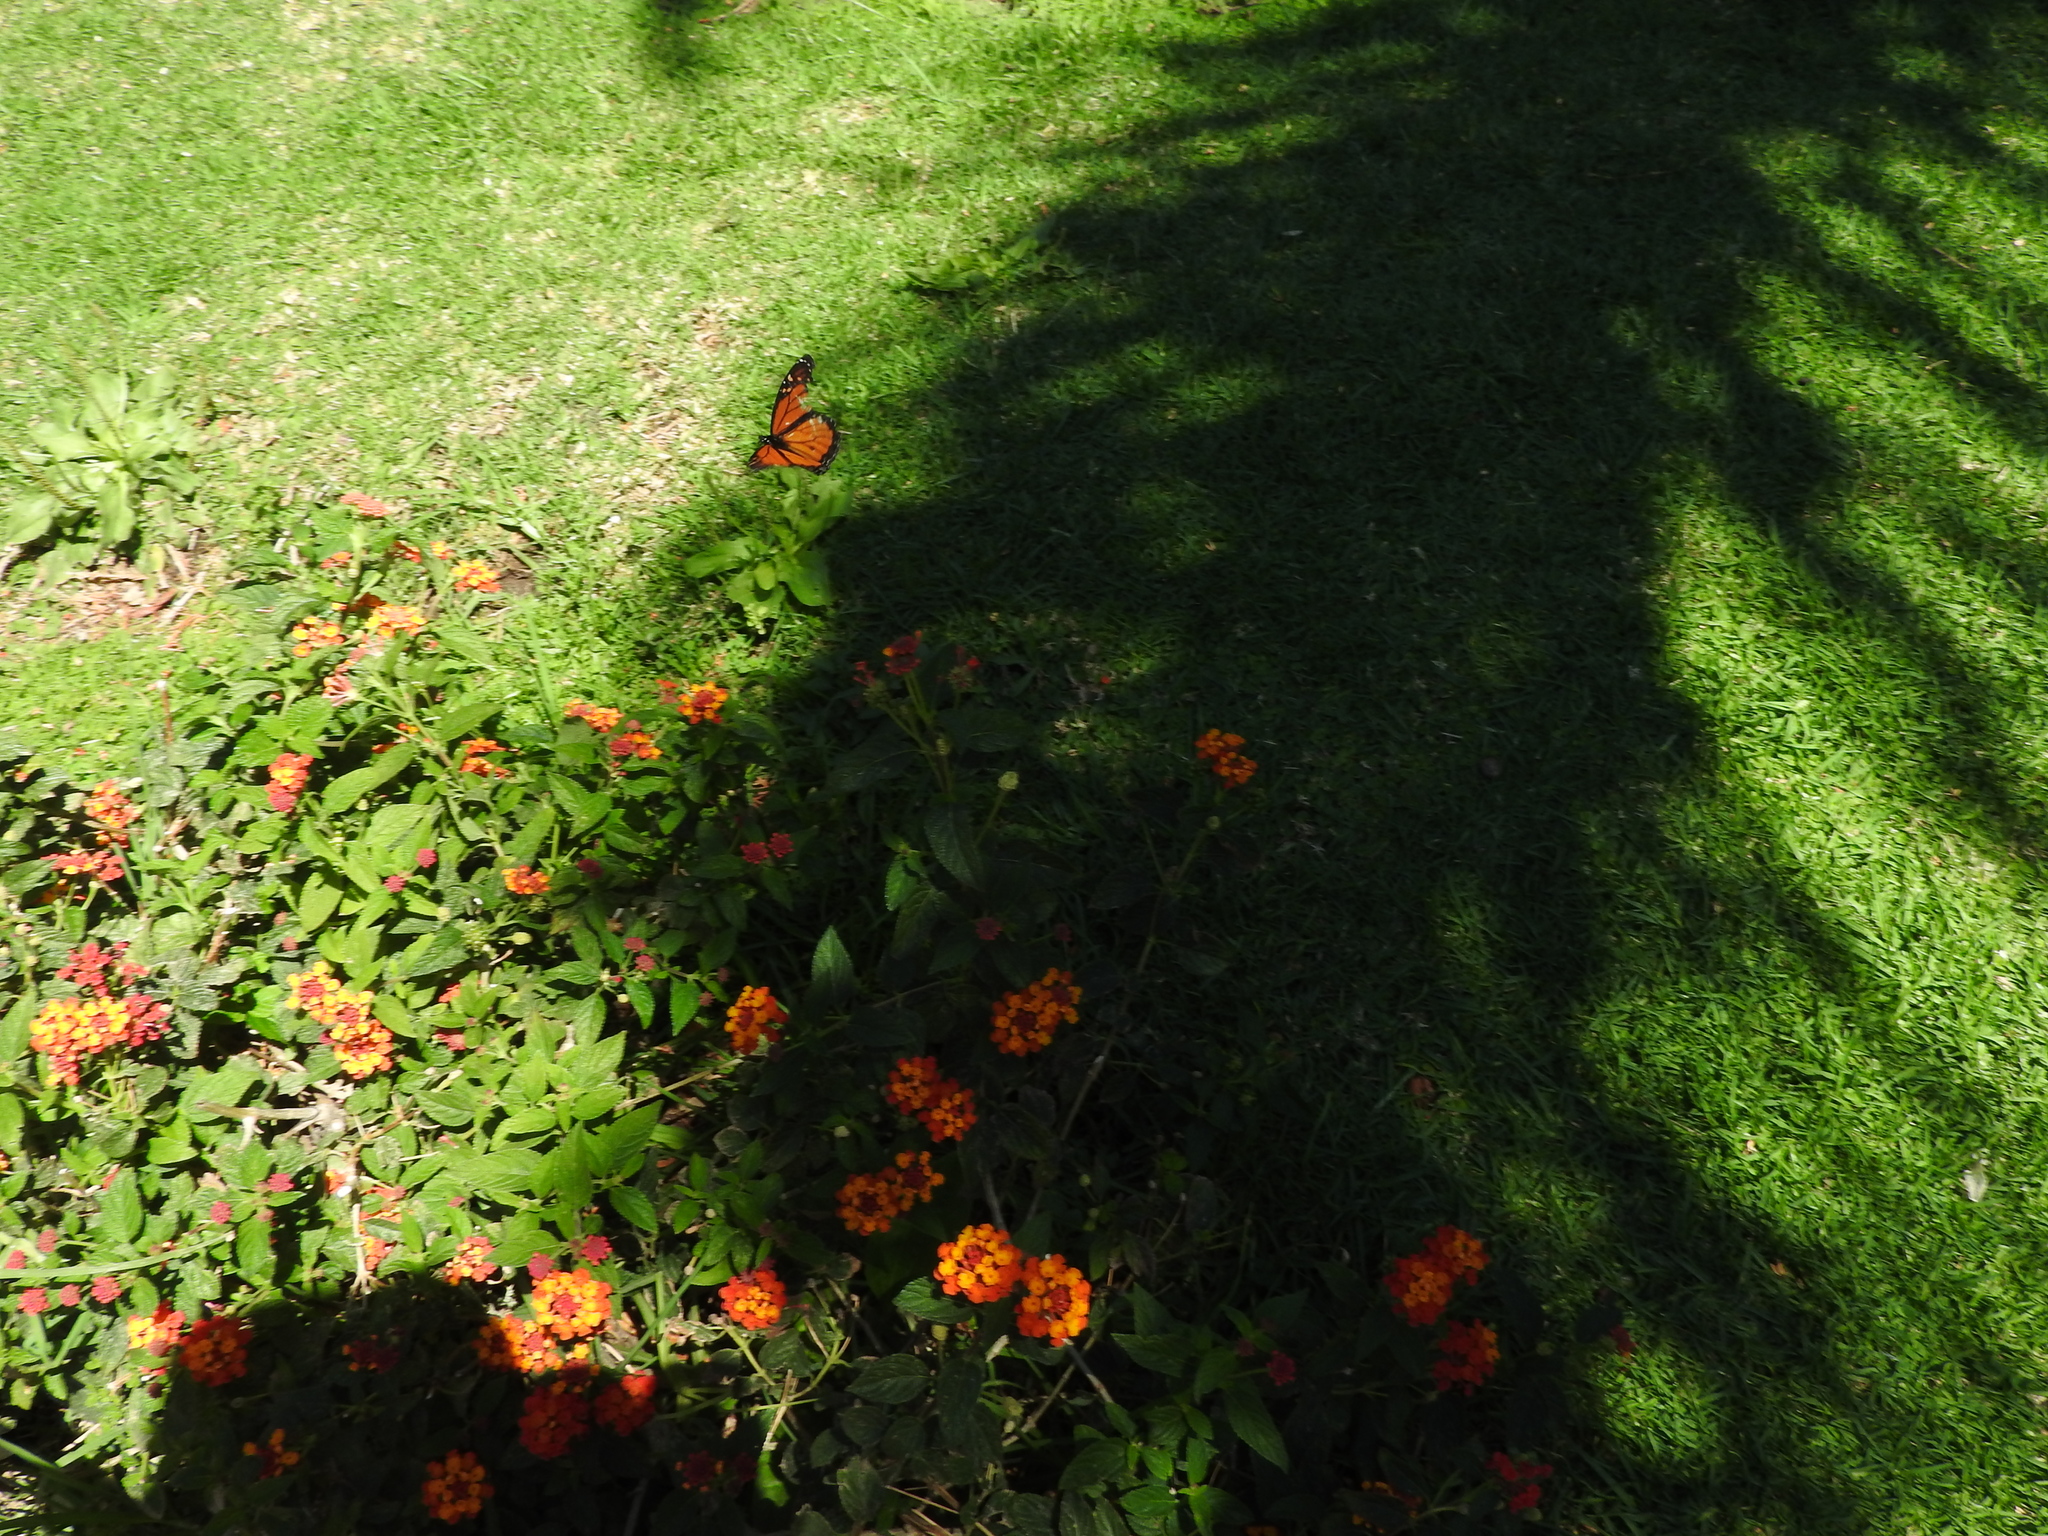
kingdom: Animalia
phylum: Arthropoda
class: Insecta
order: Lepidoptera
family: Nymphalidae
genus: Danaus
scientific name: Danaus plexippus
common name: Monarch
